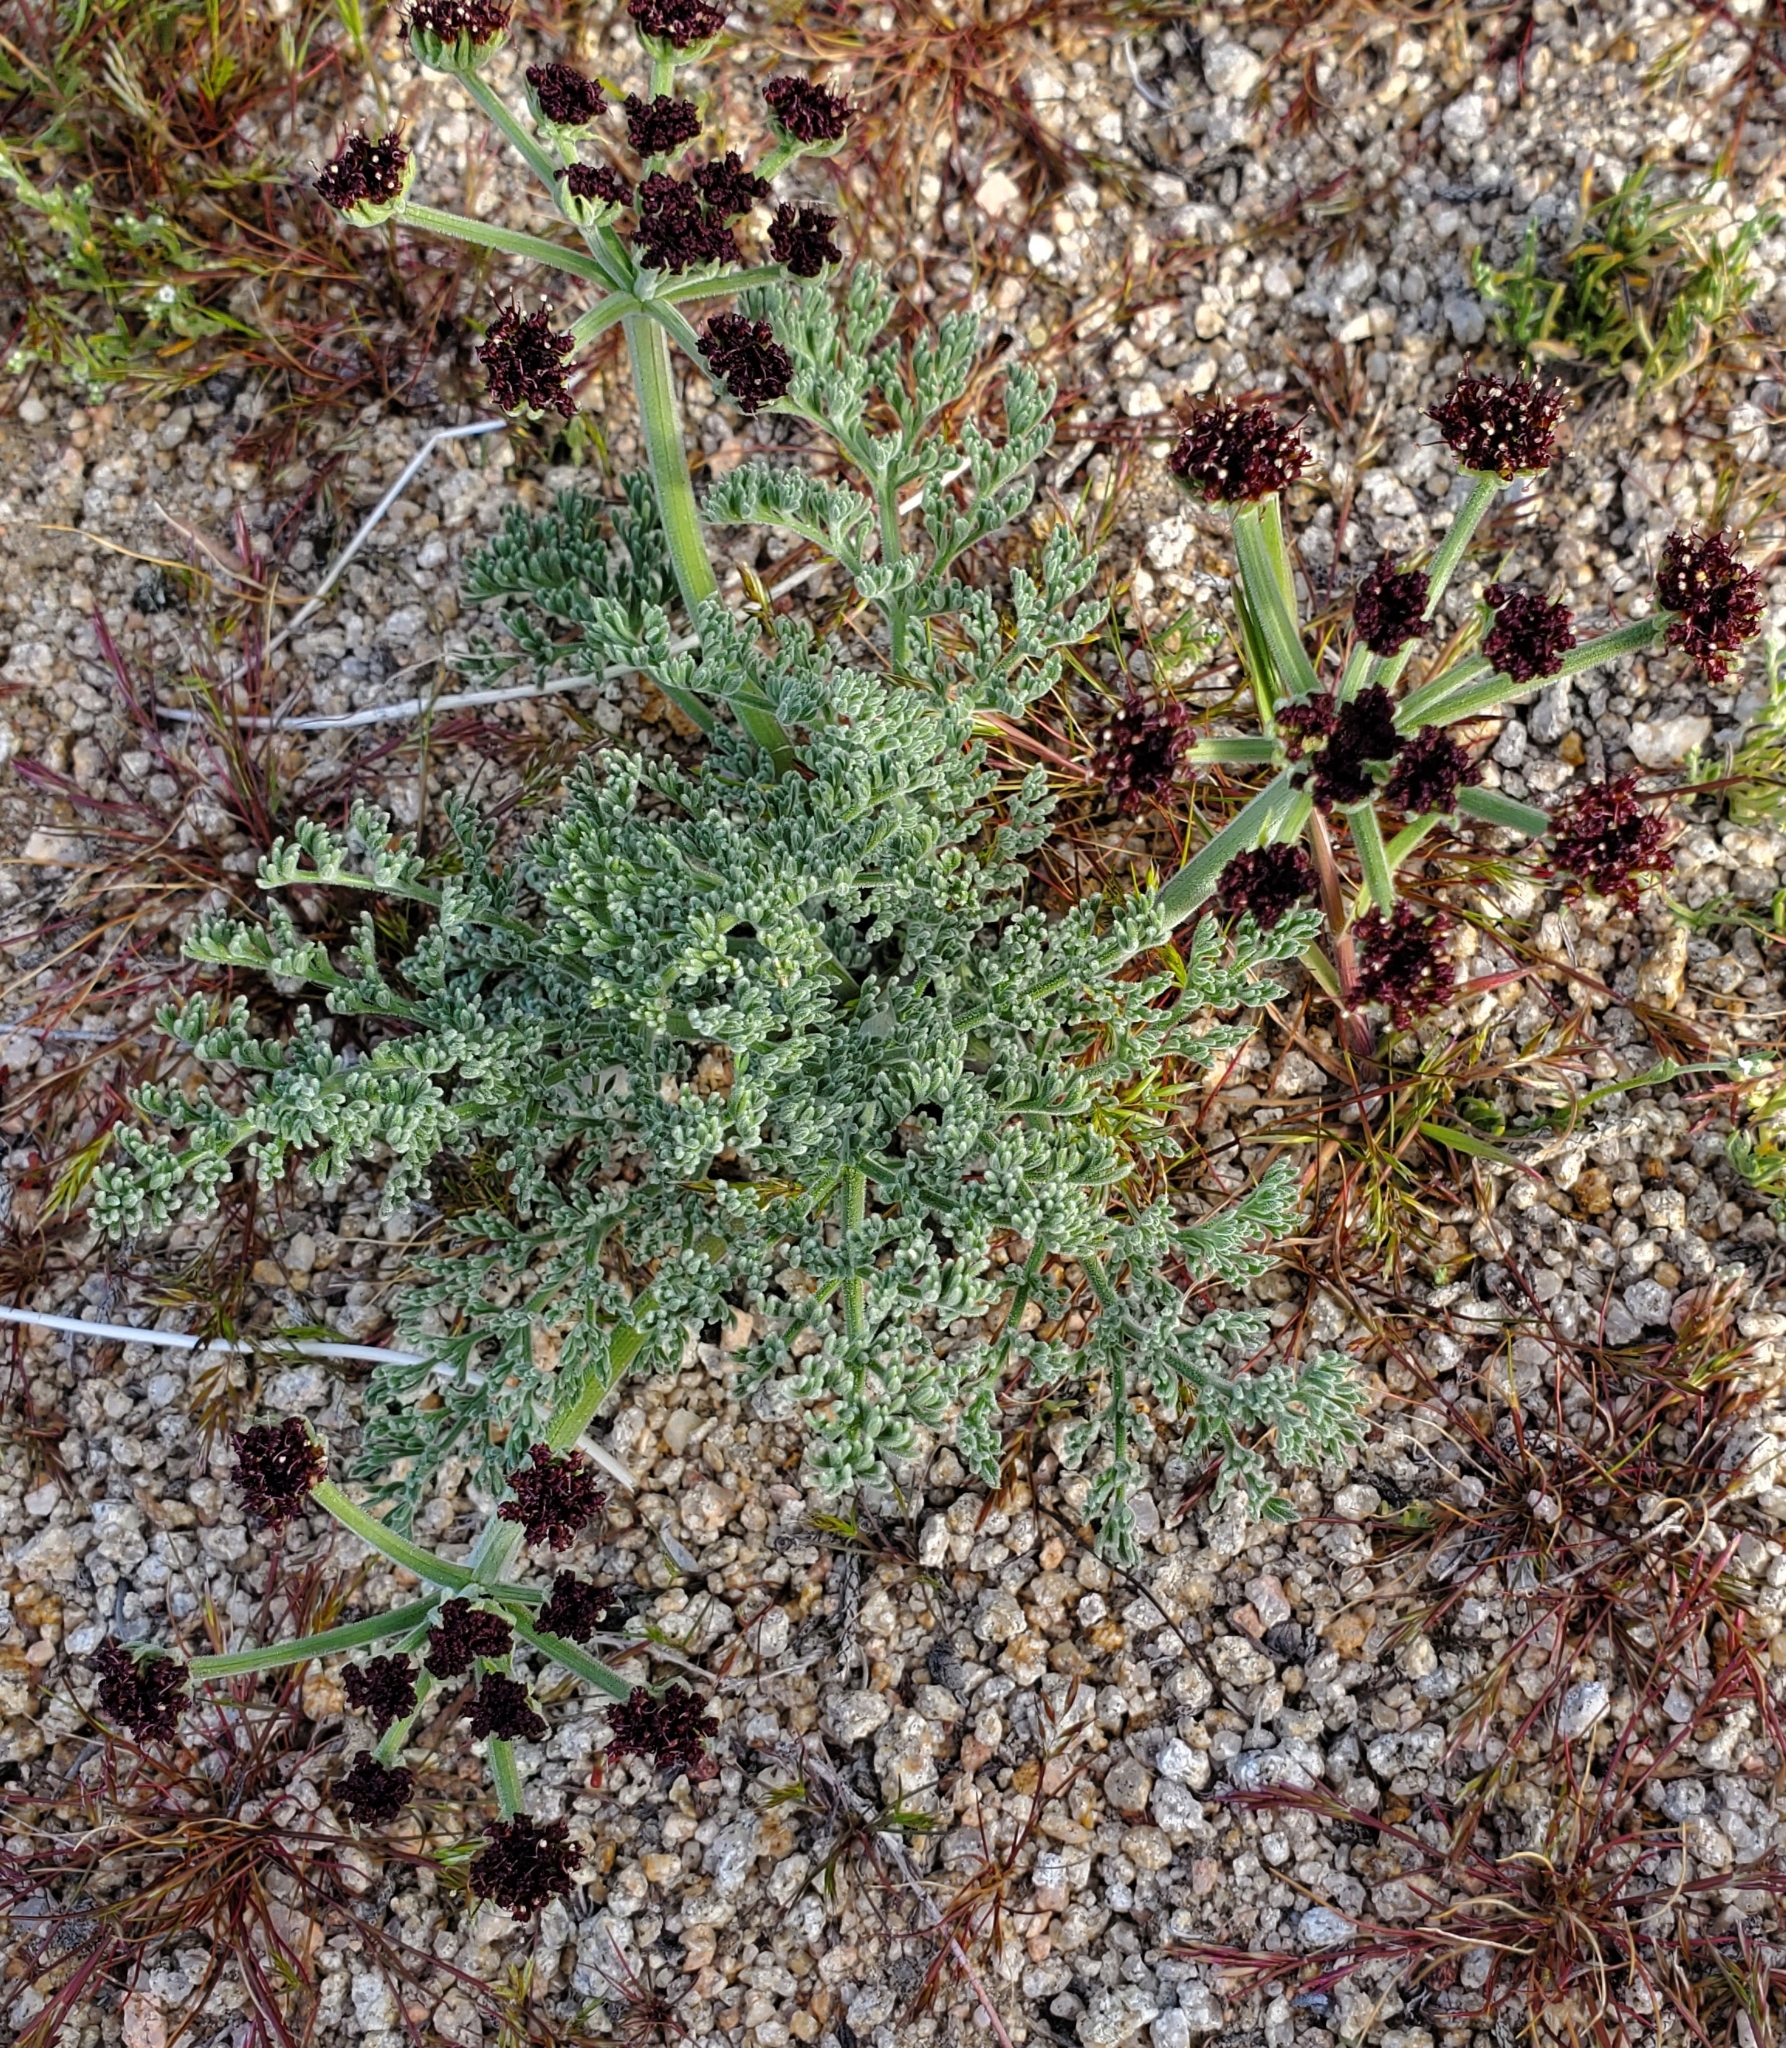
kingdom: Plantae
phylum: Tracheophyta
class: Magnoliopsida
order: Apiales
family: Apiaceae
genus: Lomatium
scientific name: Lomatium mohavense
